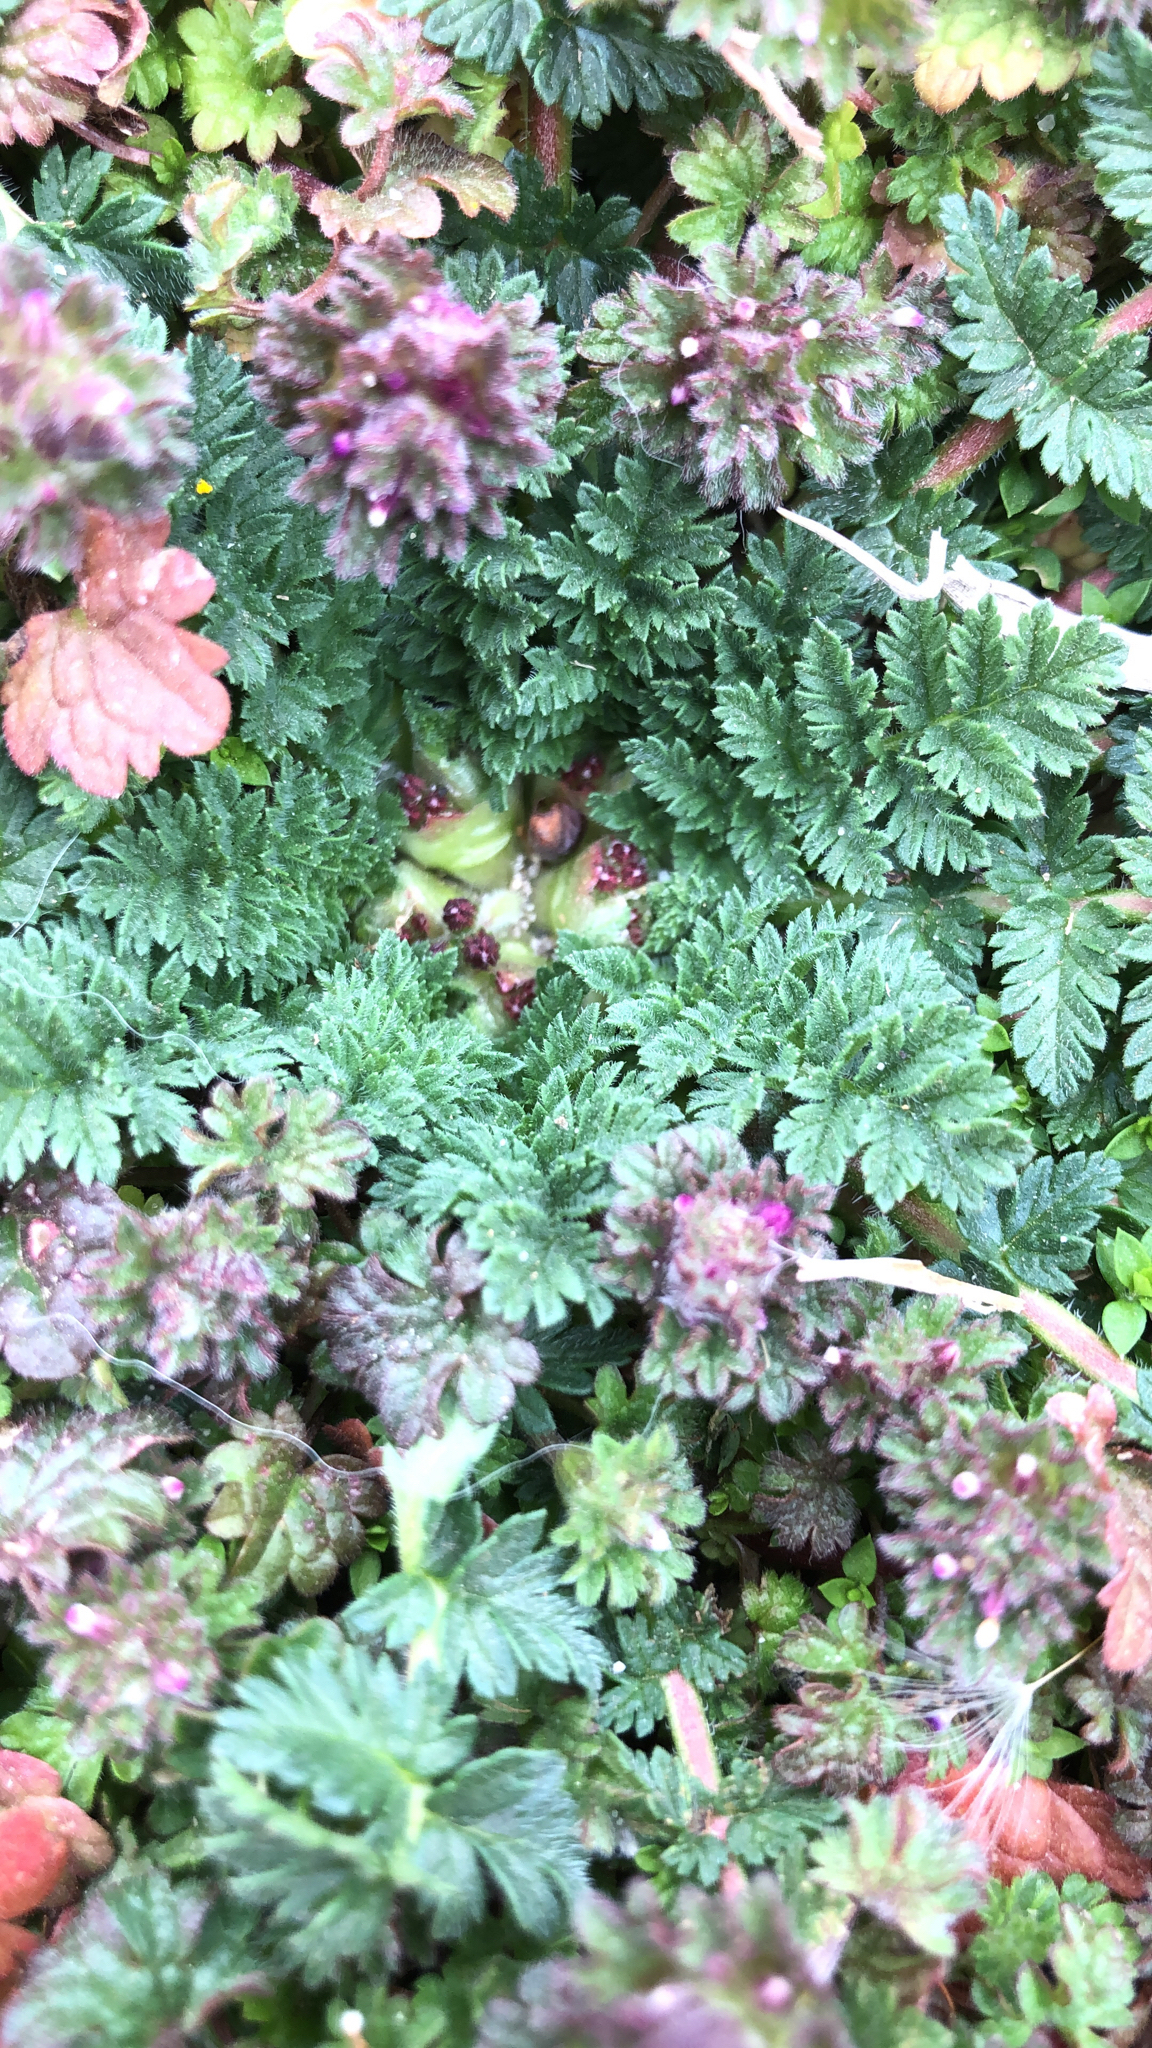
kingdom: Plantae
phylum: Tracheophyta
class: Magnoliopsida
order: Geraniales
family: Geraniaceae
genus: Erodium
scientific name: Erodium cicutarium
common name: Common stork's-bill
